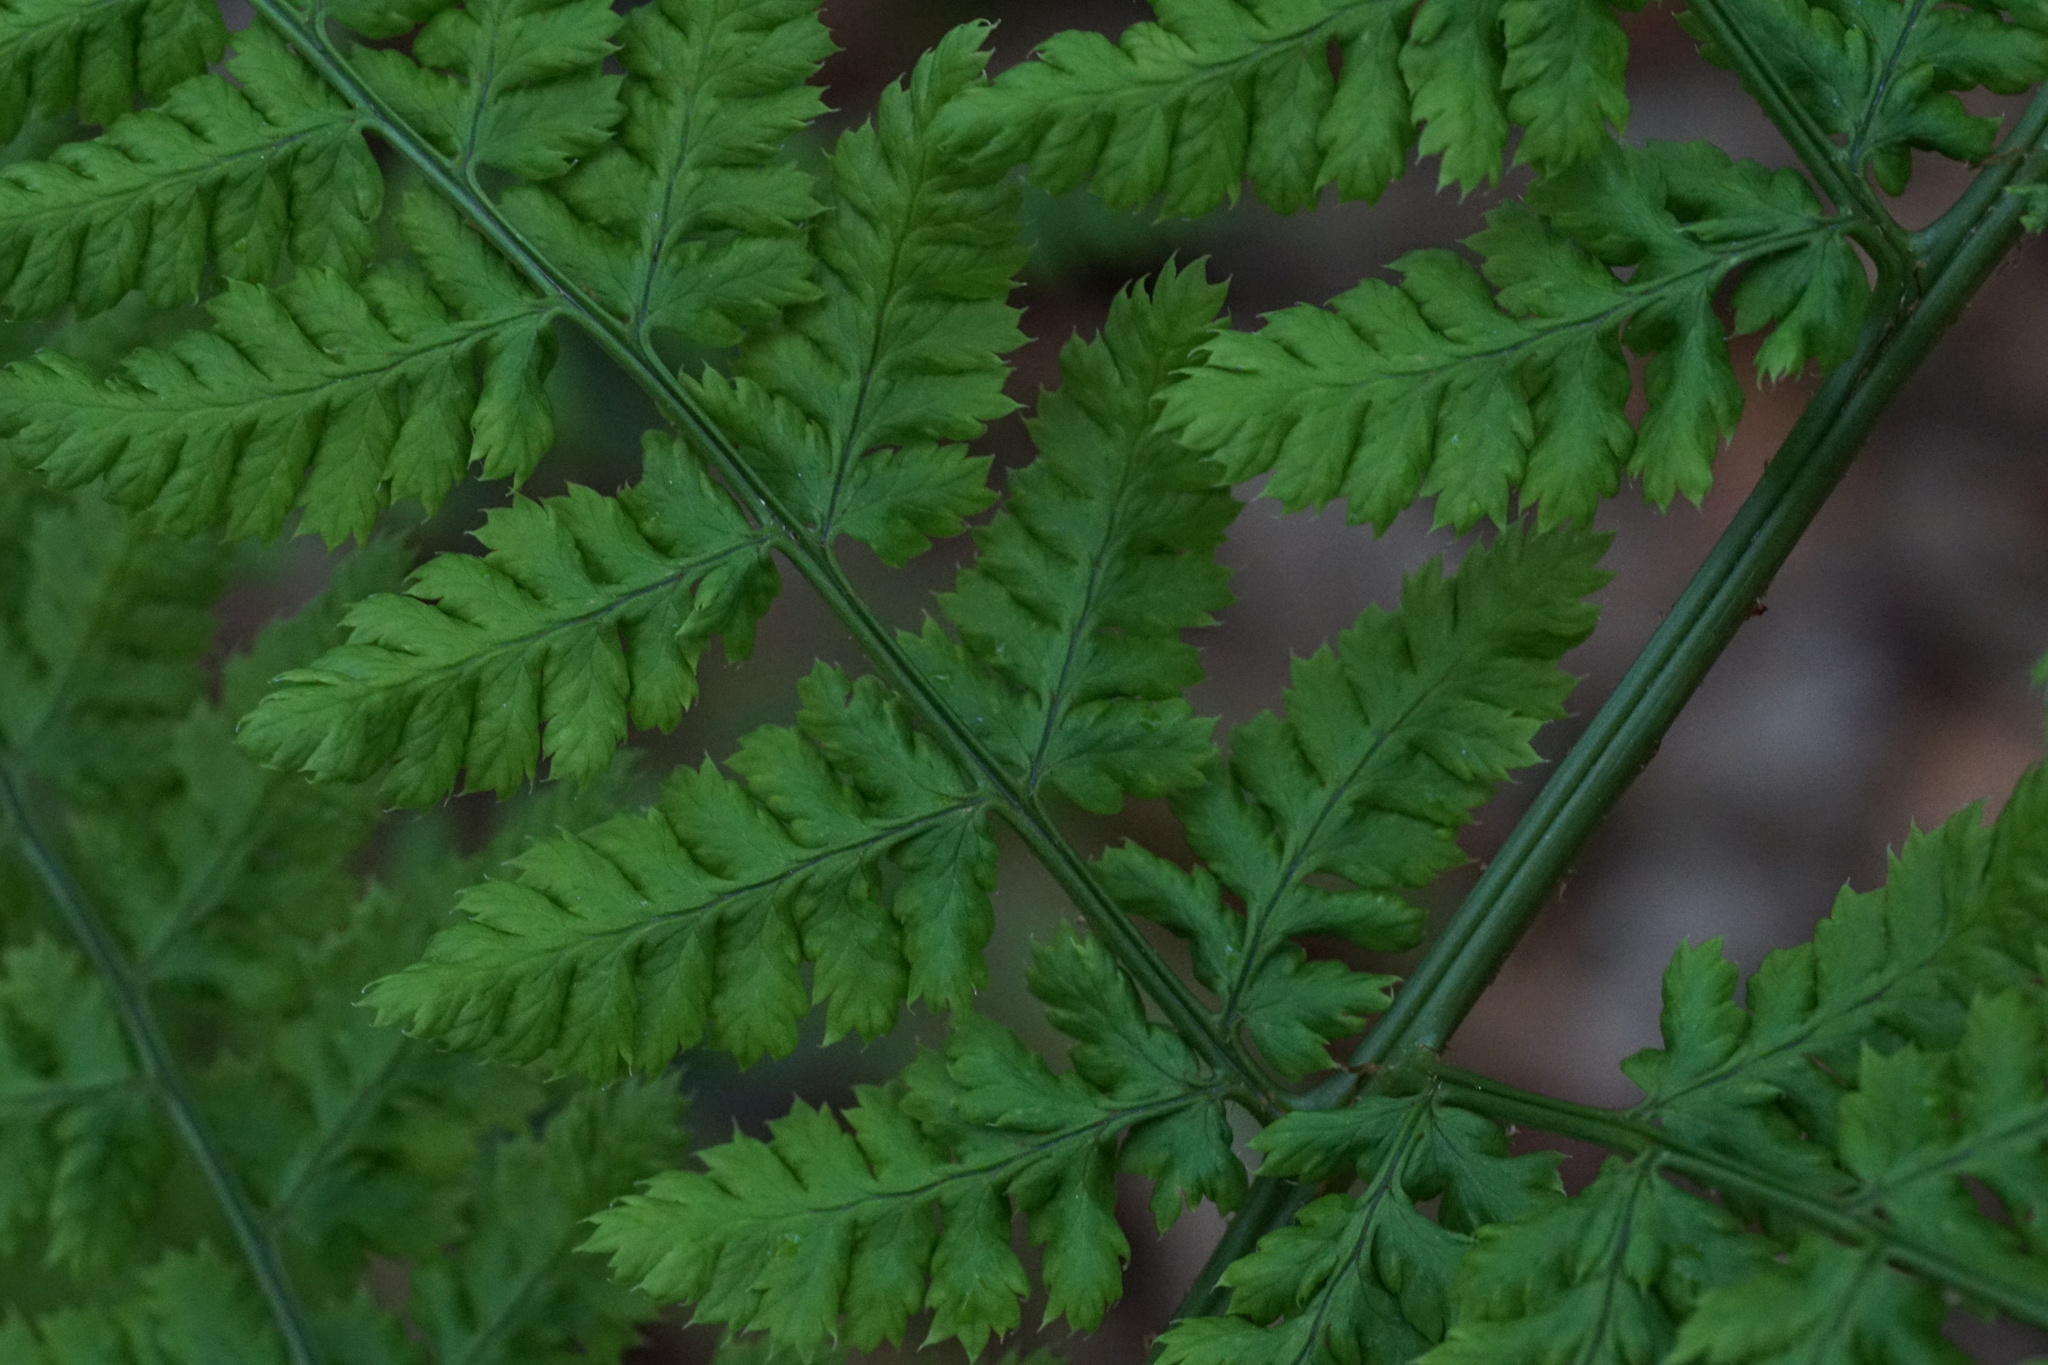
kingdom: Plantae
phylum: Tracheophyta
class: Polypodiopsida
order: Polypodiales
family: Dryopteridaceae
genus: Dryopteris
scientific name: Dryopteris dilatata
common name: Broad buckler-fern
